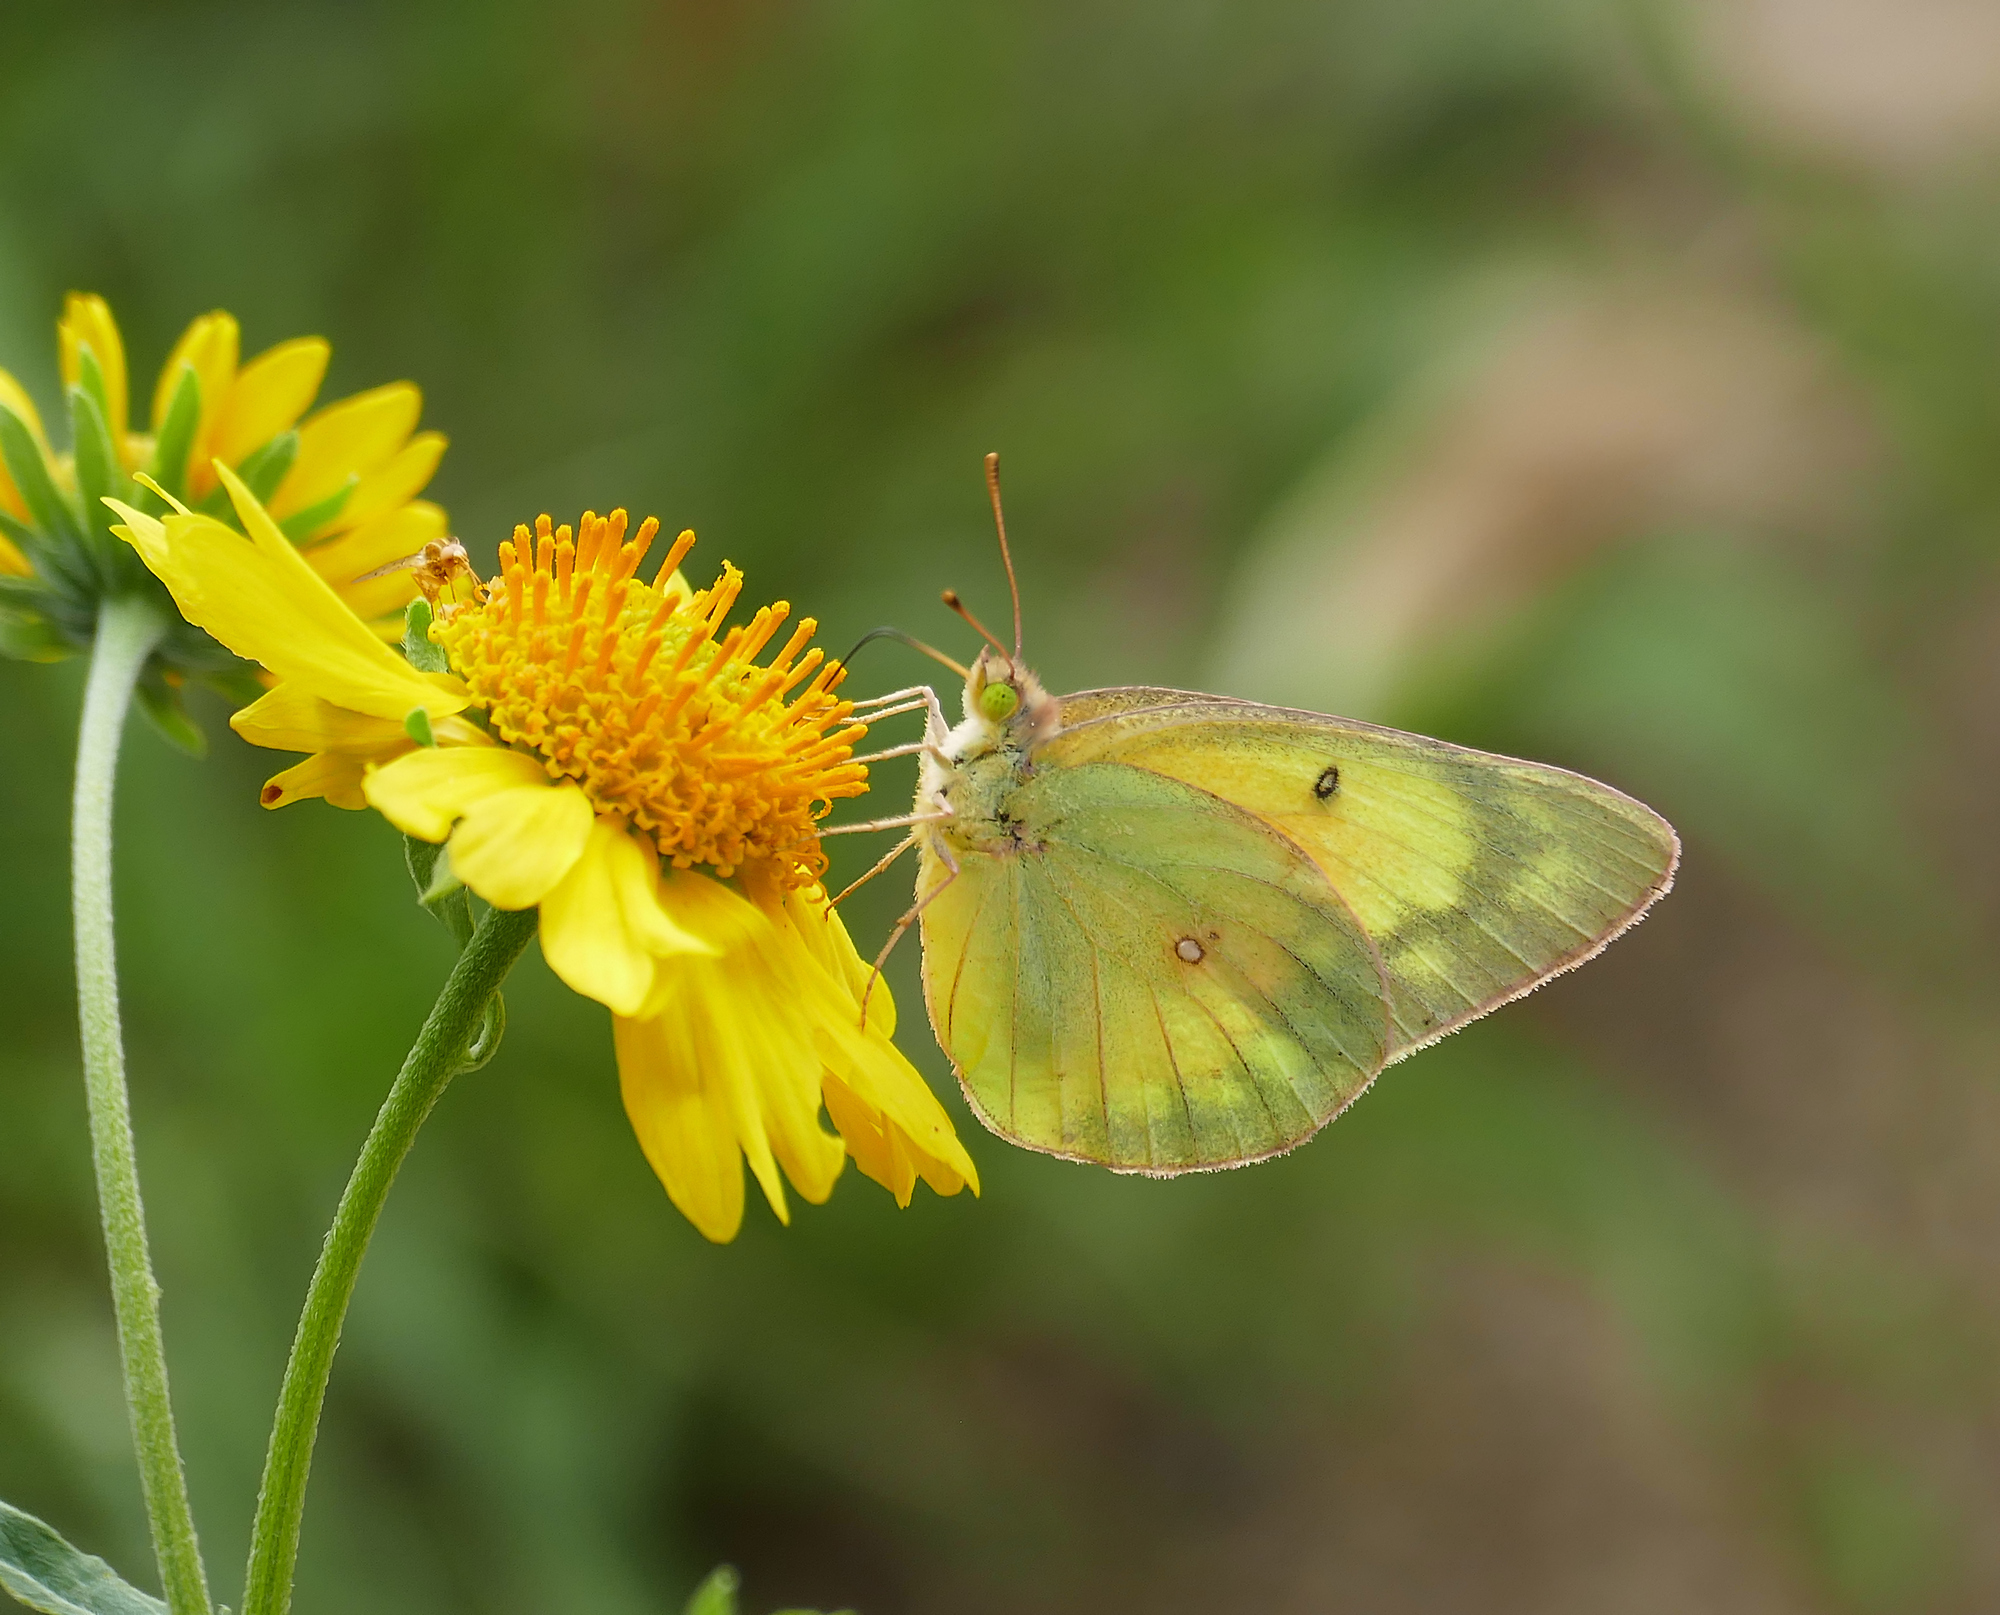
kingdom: Animalia
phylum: Arthropoda
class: Insecta
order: Lepidoptera
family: Pieridae
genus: Colias
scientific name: Colias eurytheme
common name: Alfalfa butterfly
